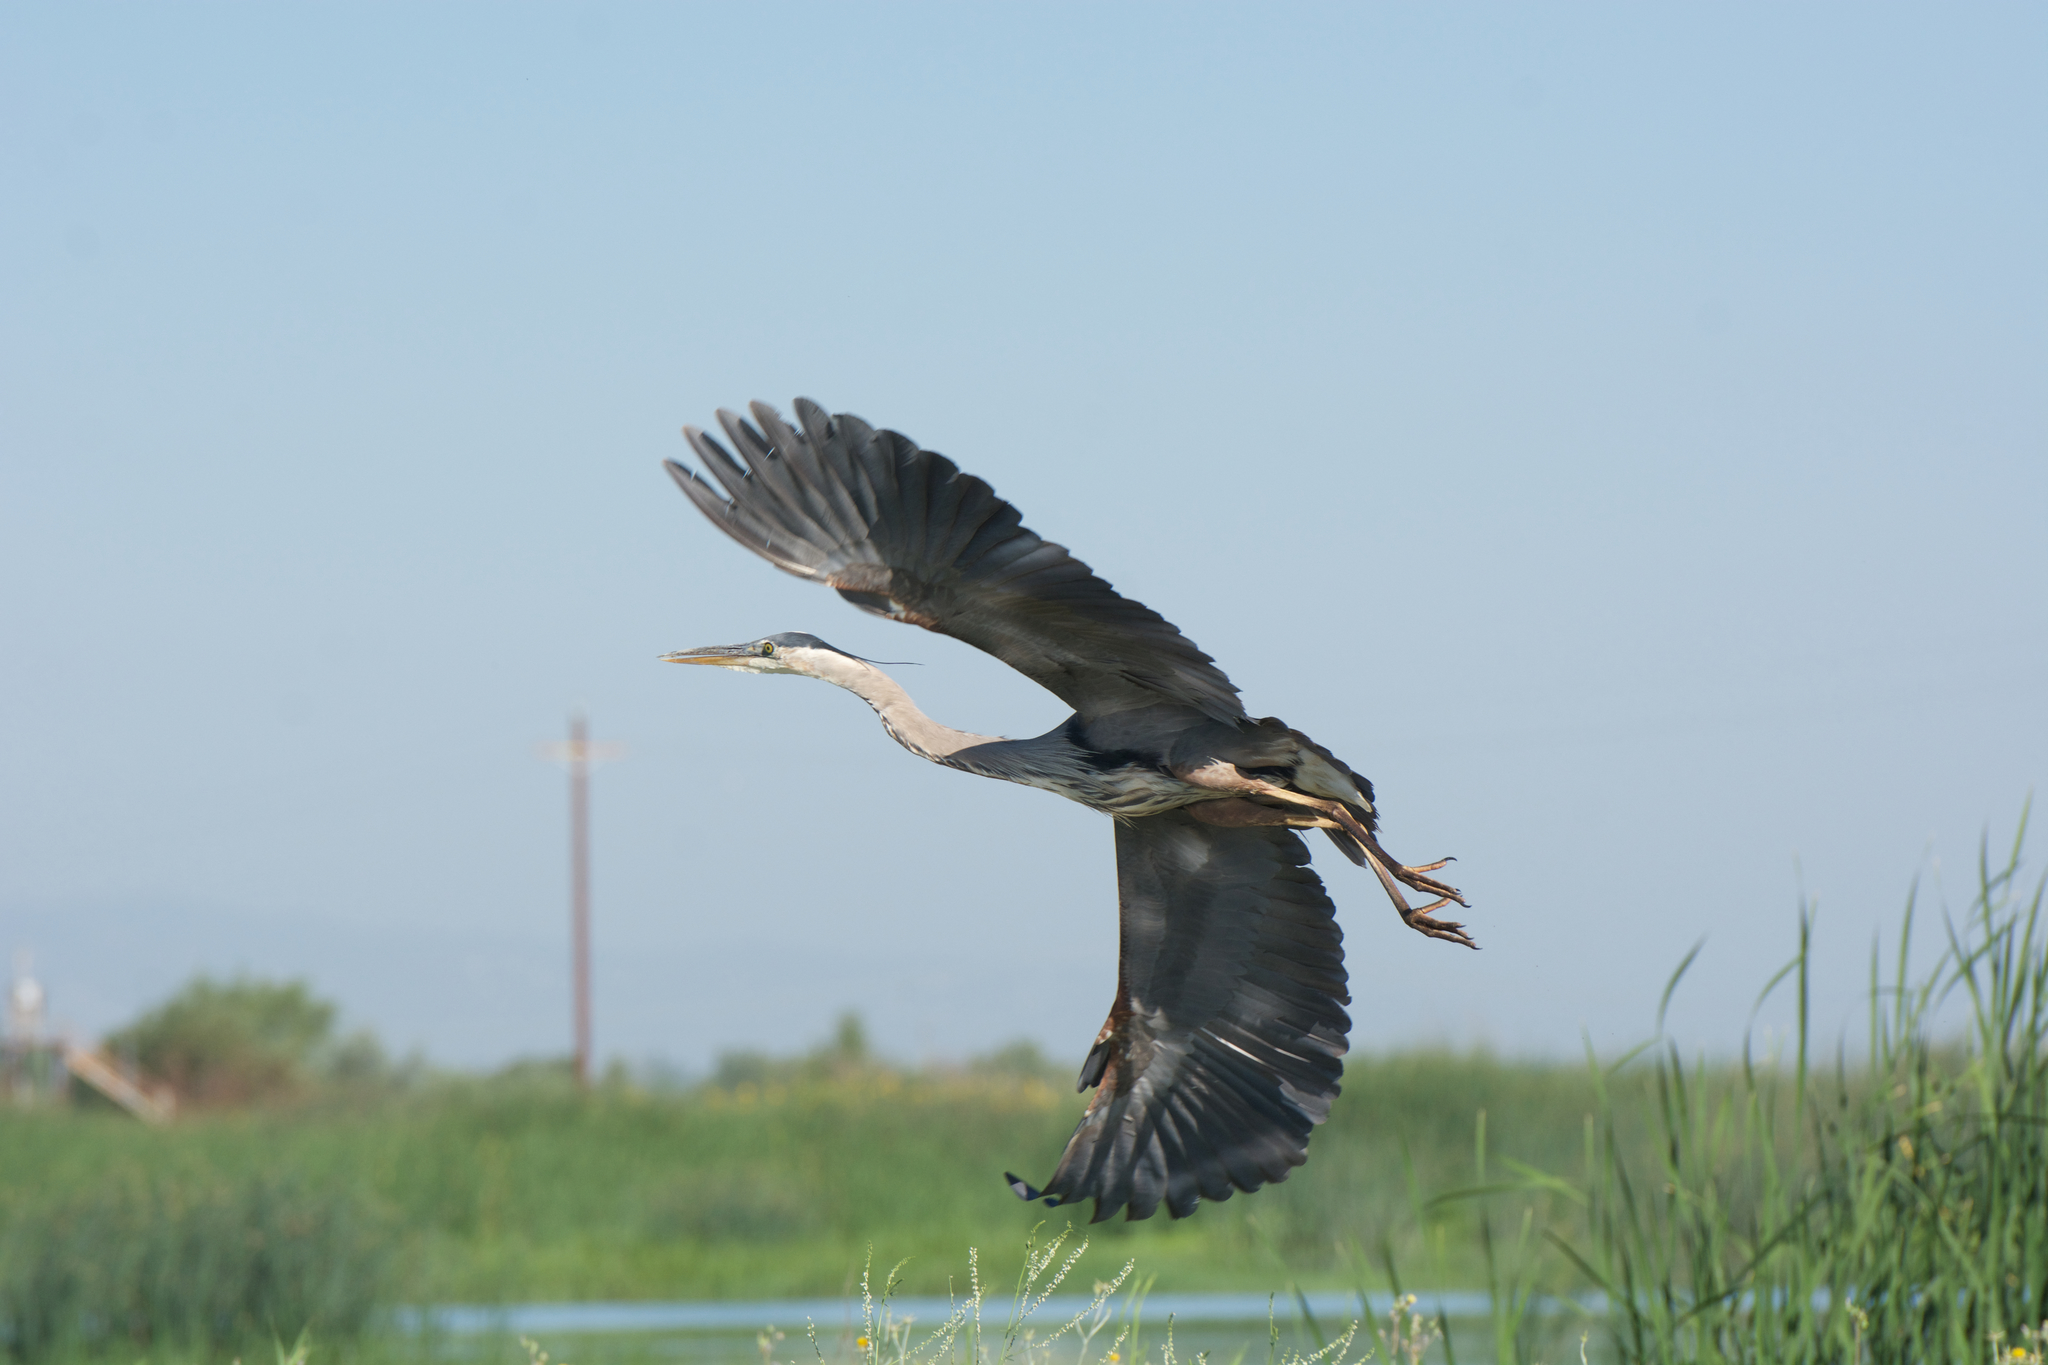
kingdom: Animalia
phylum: Chordata
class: Aves
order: Pelecaniformes
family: Ardeidae
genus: Ardea
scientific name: Ardea herodias
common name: Great blue heron
